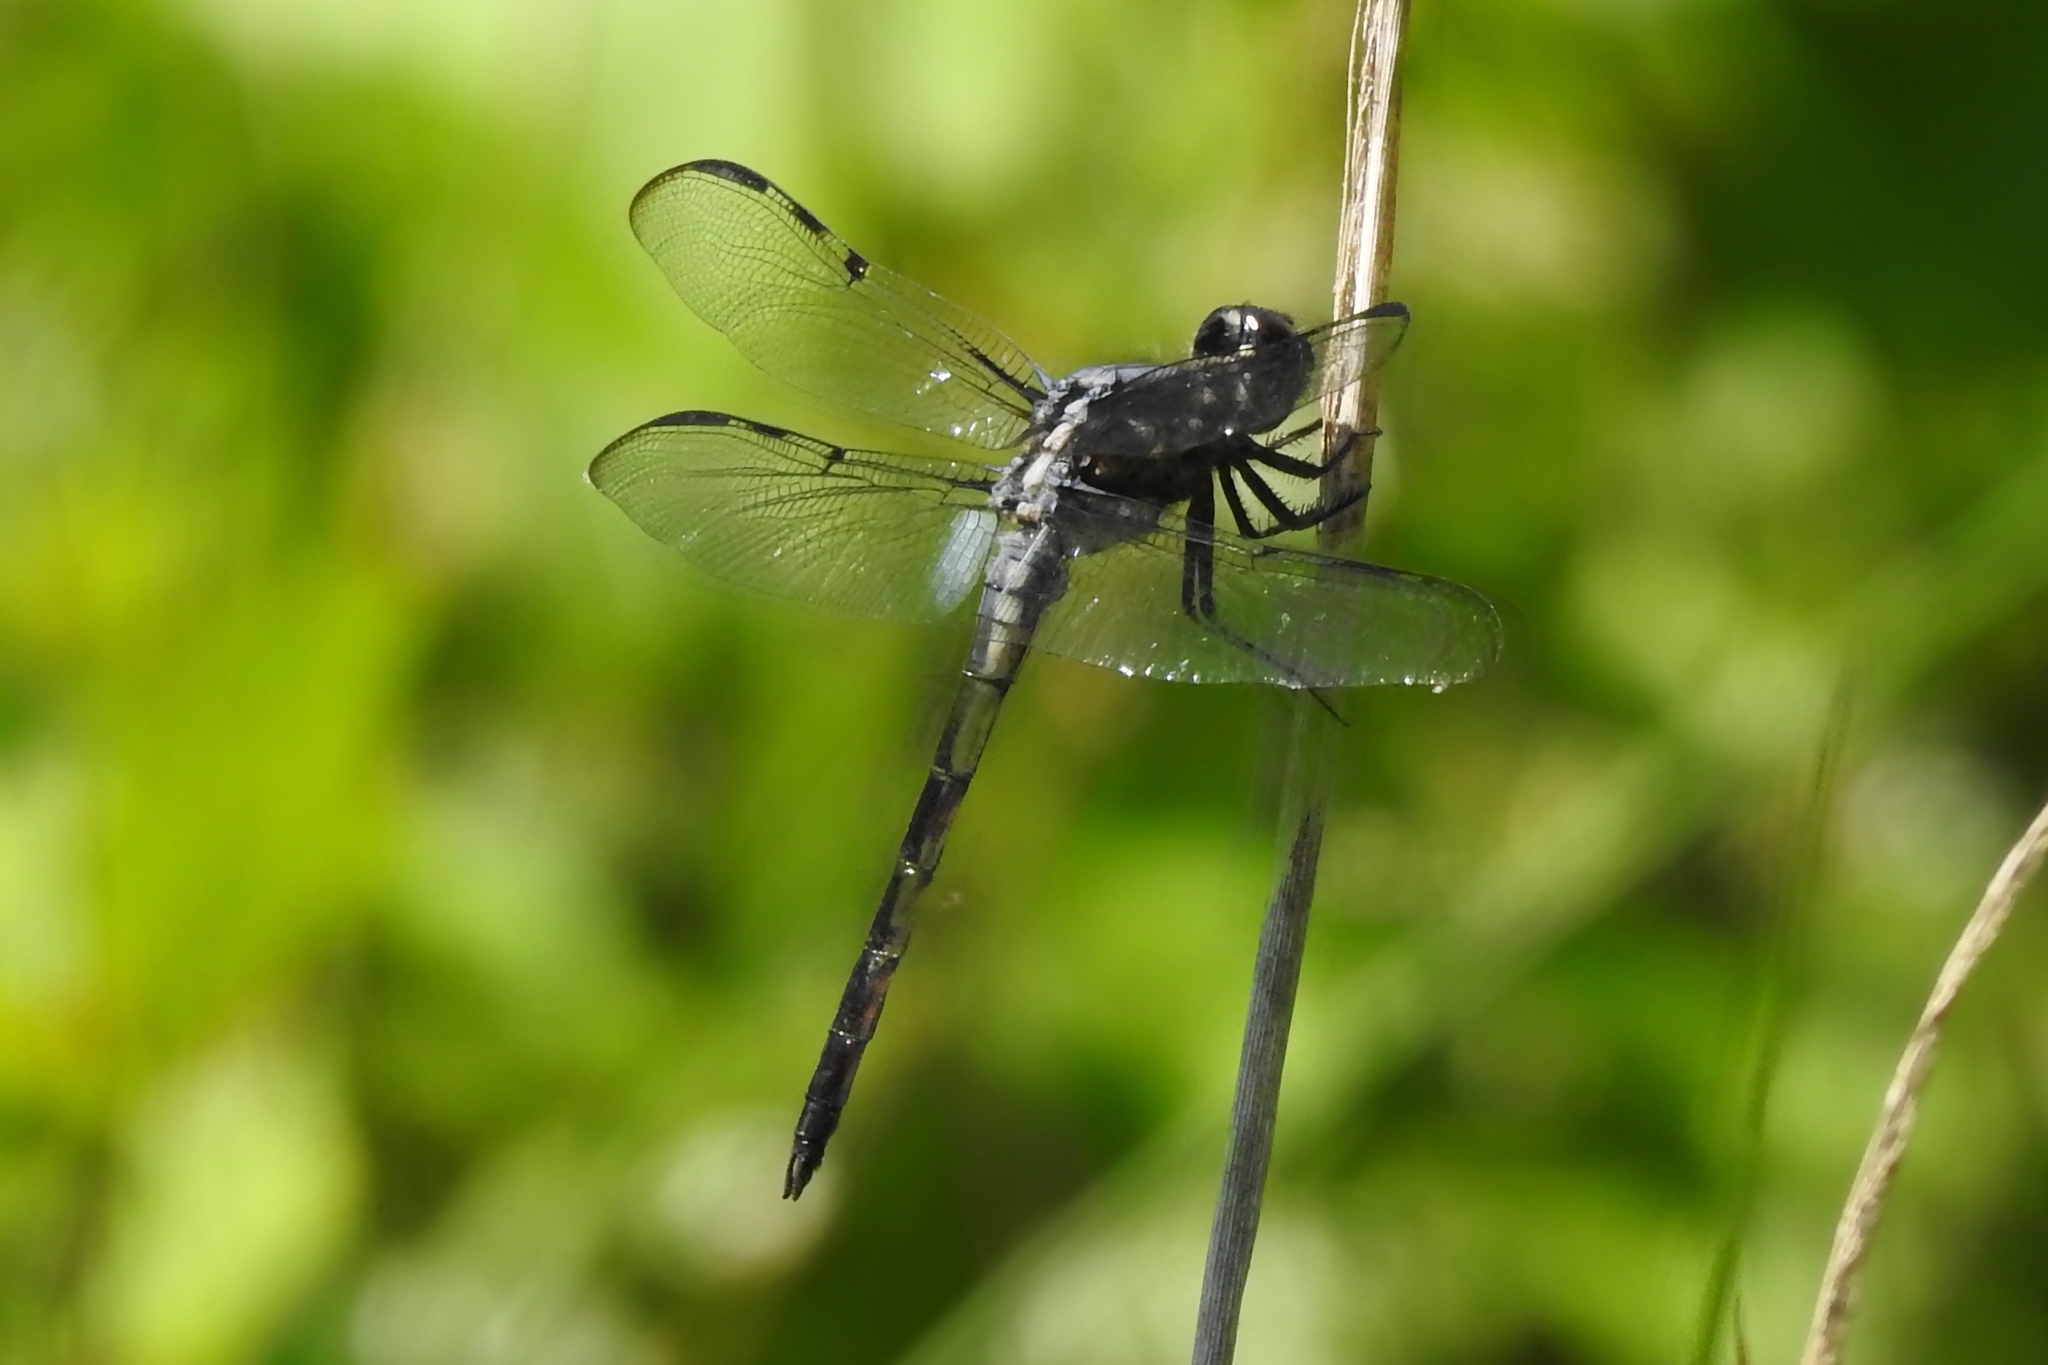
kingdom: Animalia
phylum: Arthropoda
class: Insecta
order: Odonata
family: Libellulidae
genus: Libellula
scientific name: Libellula axilena
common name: Bar-winged skimmer
